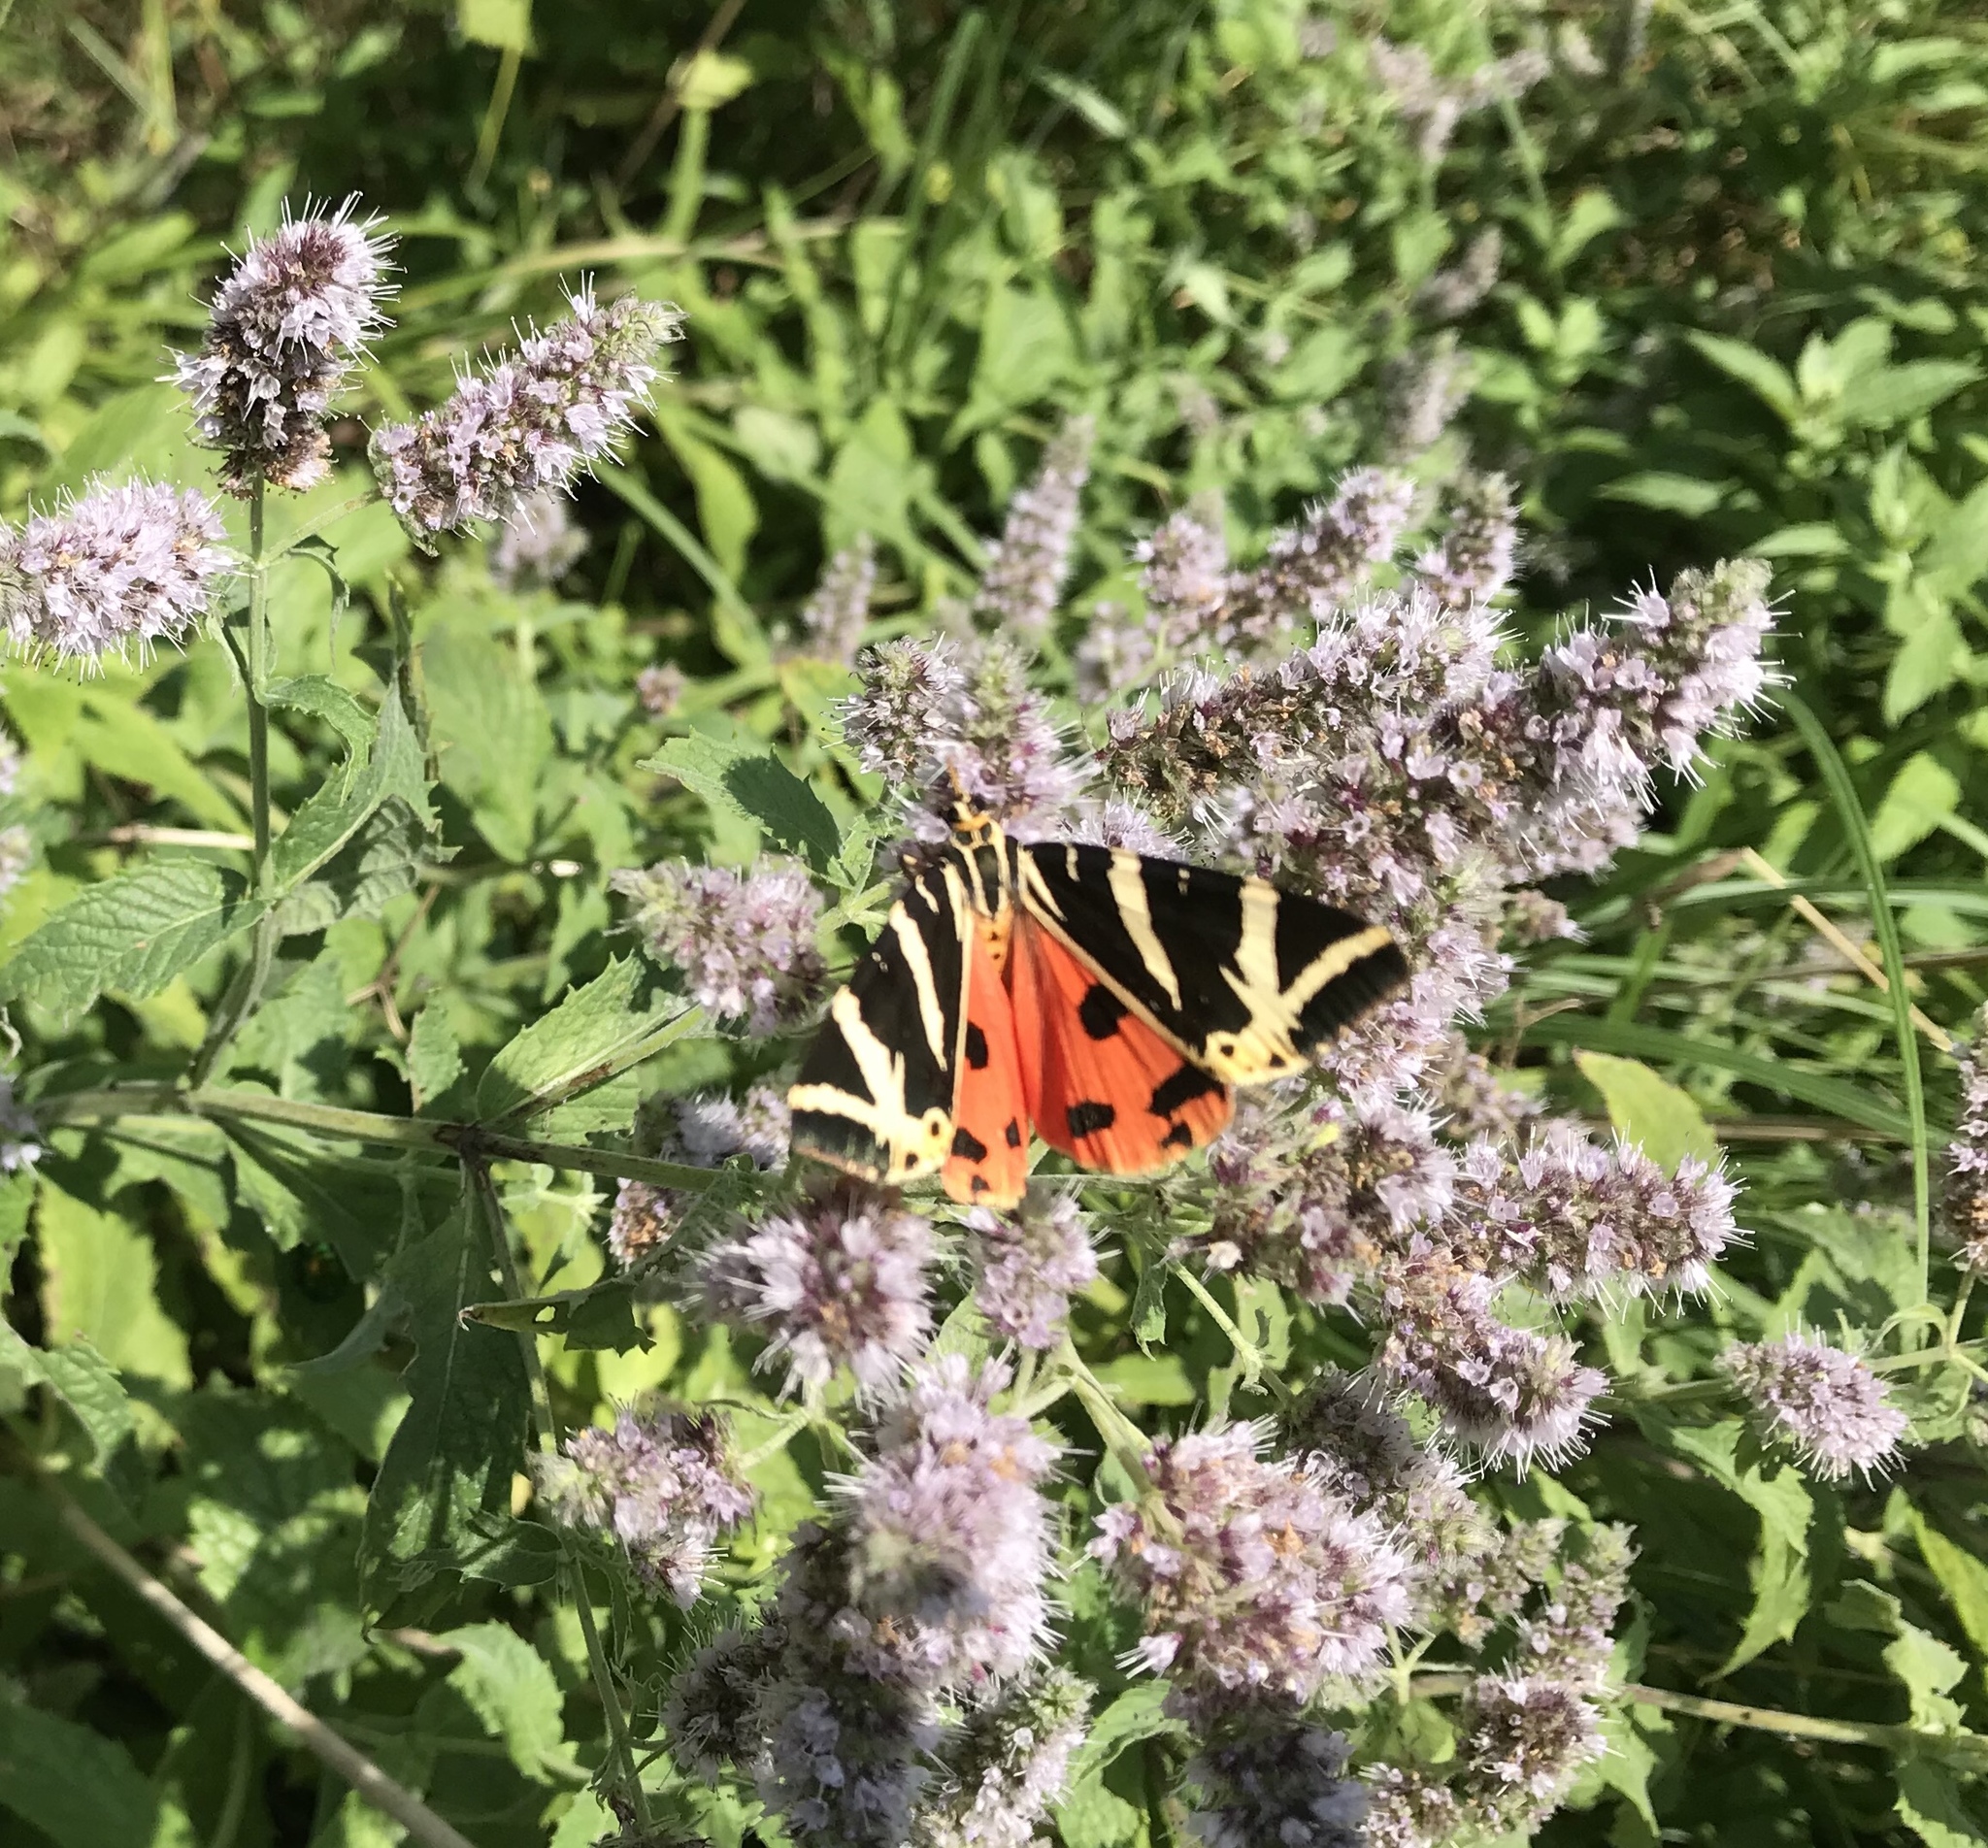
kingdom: Animalia
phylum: Arthropoda
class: Insecta
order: Lepidoptera
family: Erebidae
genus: Euplagia
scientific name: Euplagia quadripunctaria
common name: Jersey tiger
